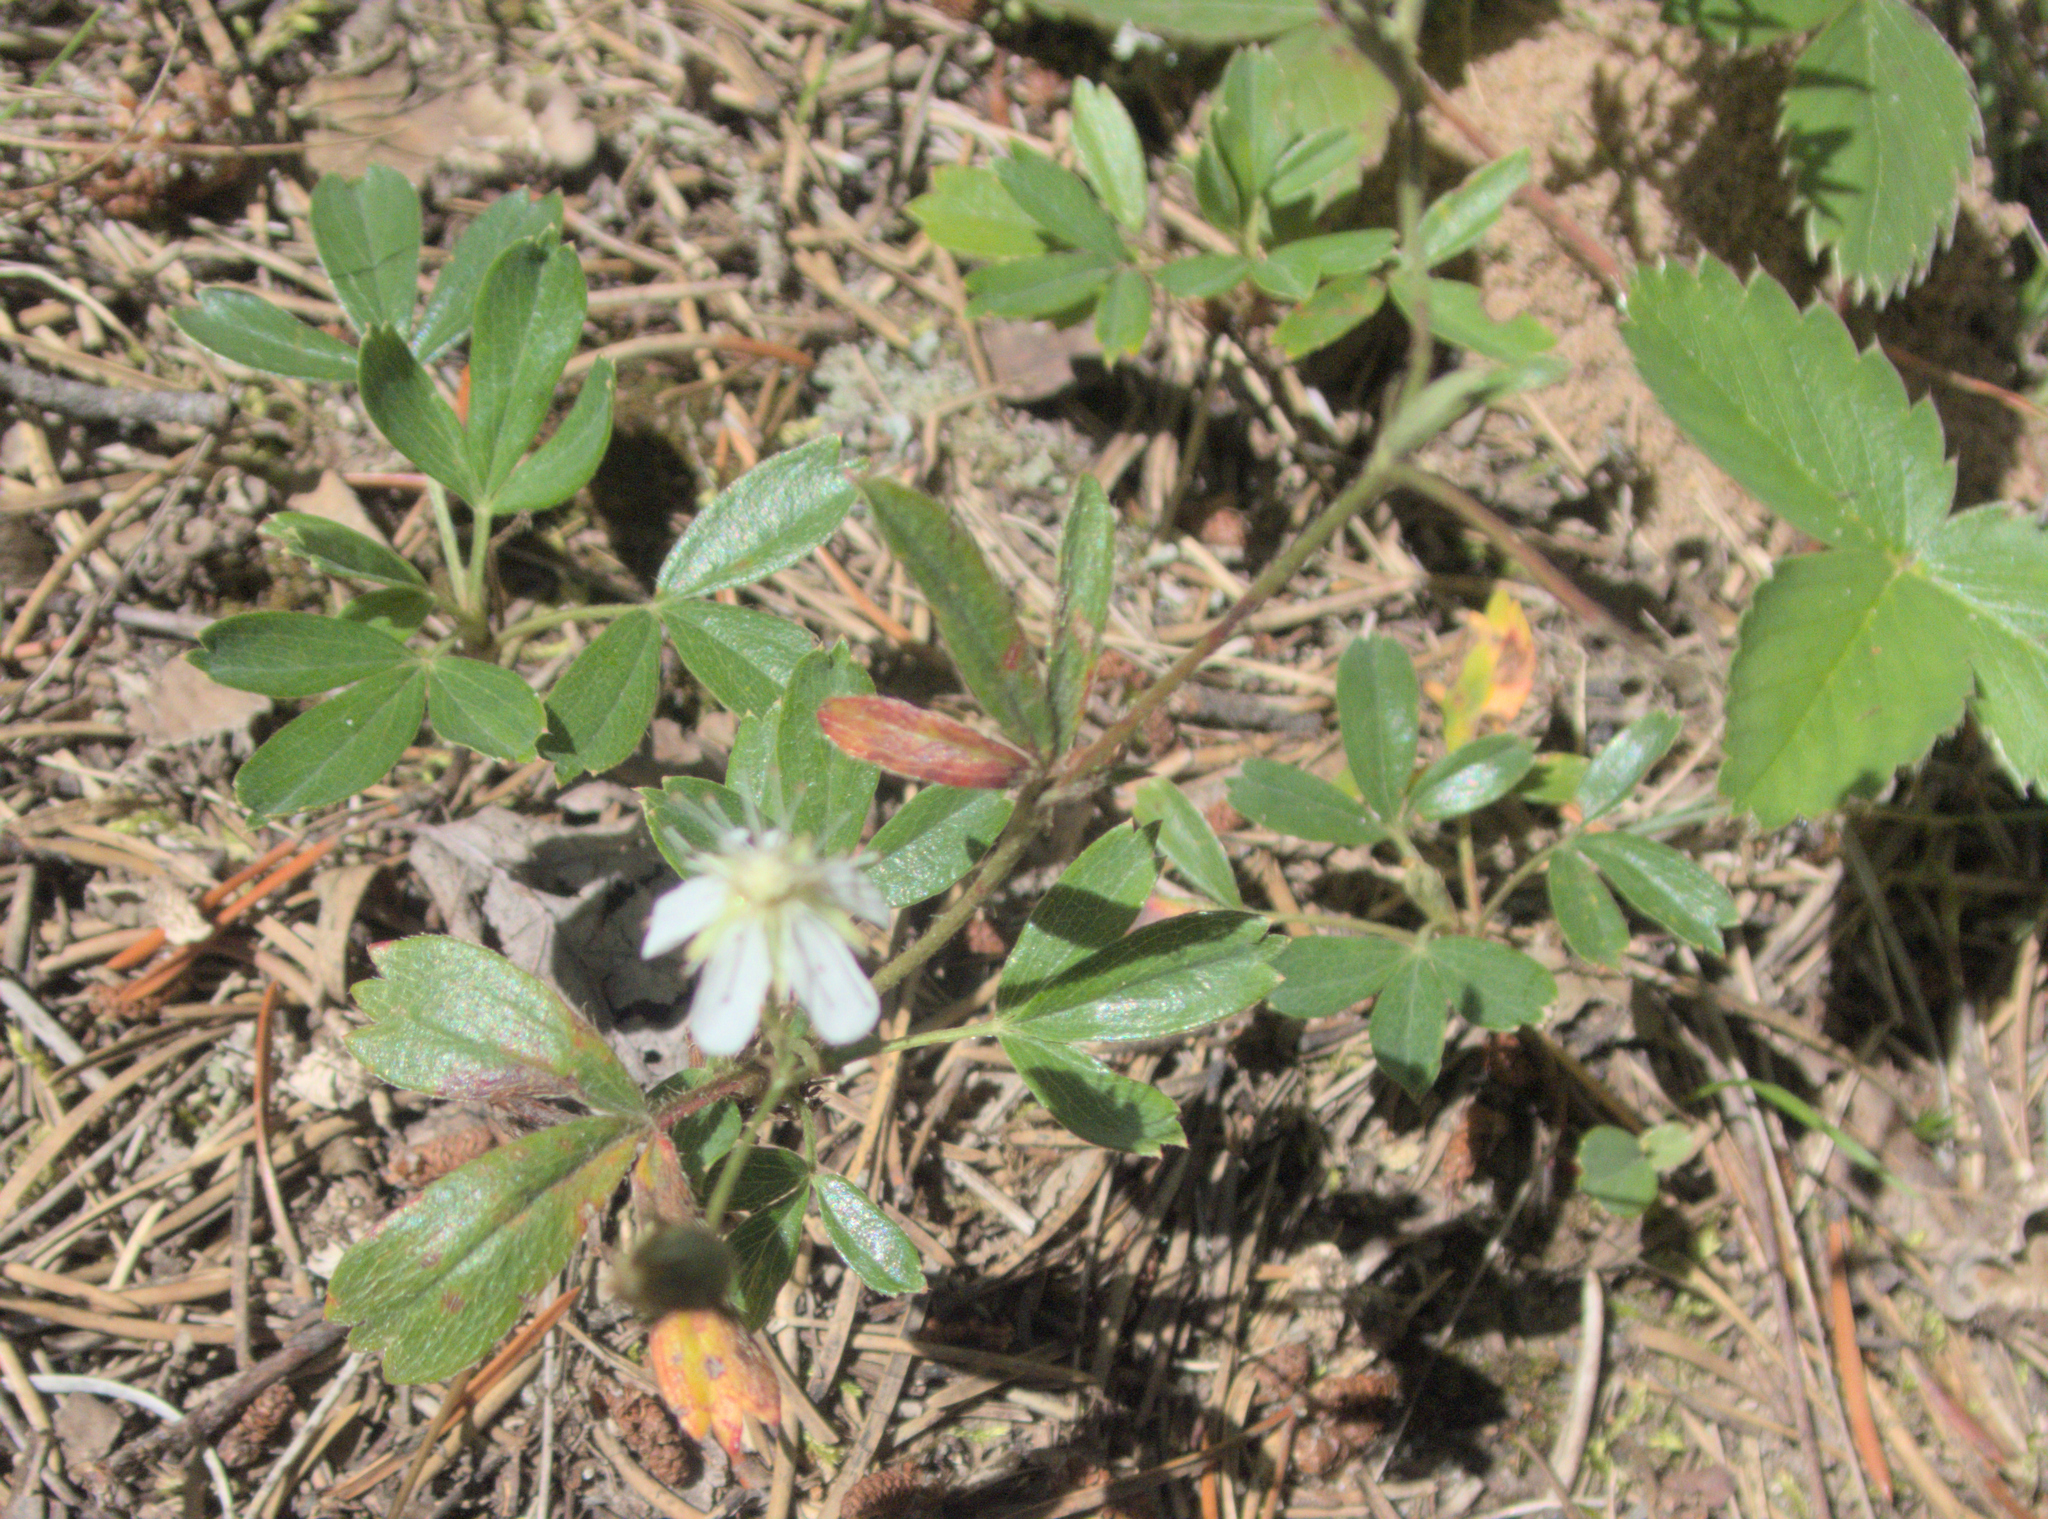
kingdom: Plantae
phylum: Tracheophyta
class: Magnoliopsida
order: Rosales
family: Rosaceae
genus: Sibbaldia
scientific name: Sibbaldia tridentata
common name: Three-toothed cinquefoil
